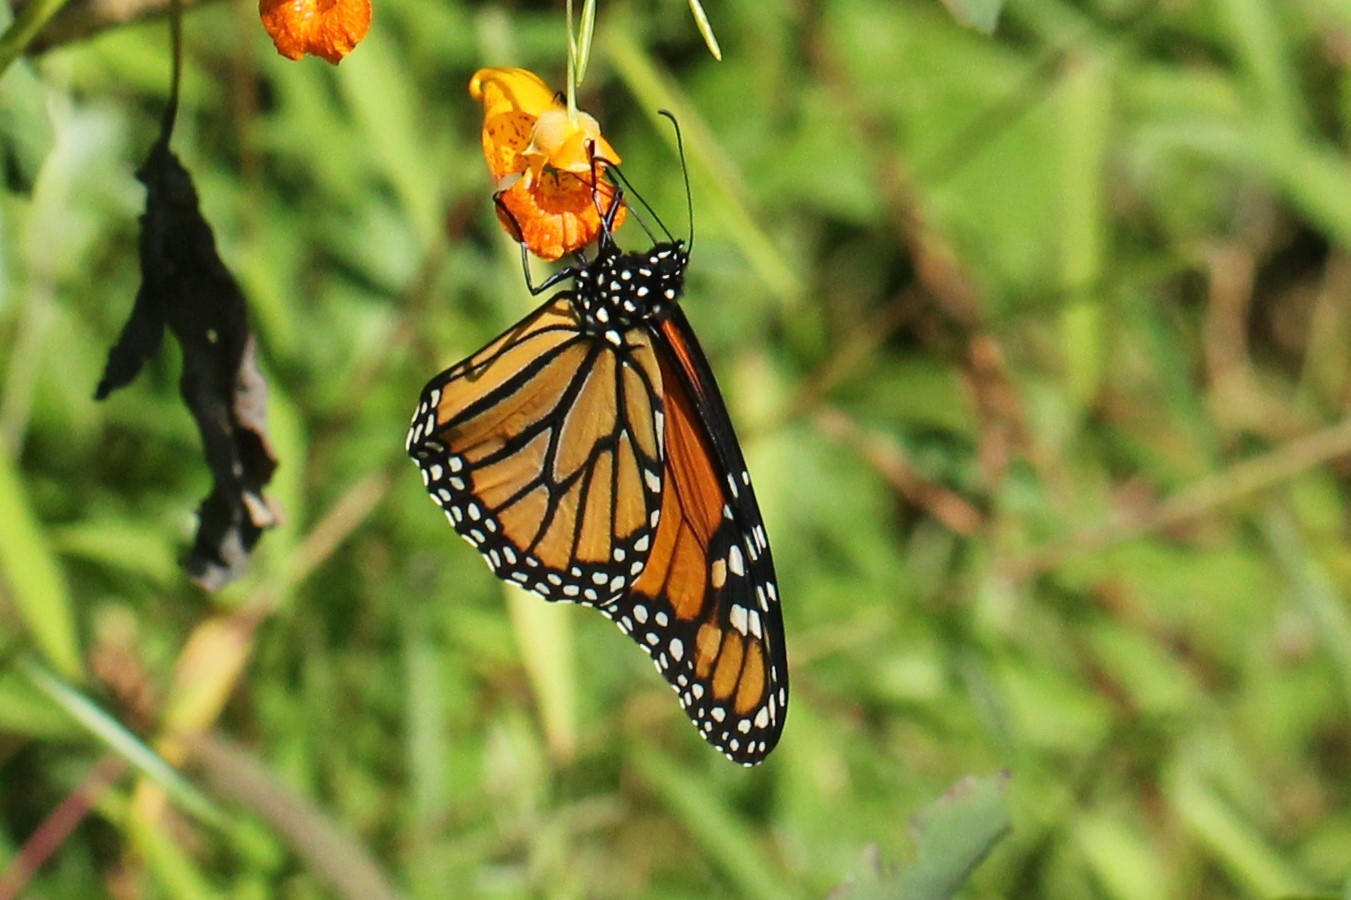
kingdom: Animalia
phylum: Arthropoda
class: Insecta
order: Lepidoptera
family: Nymphalidae
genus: Danaus
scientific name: Danaus plexippus
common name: Monarch
